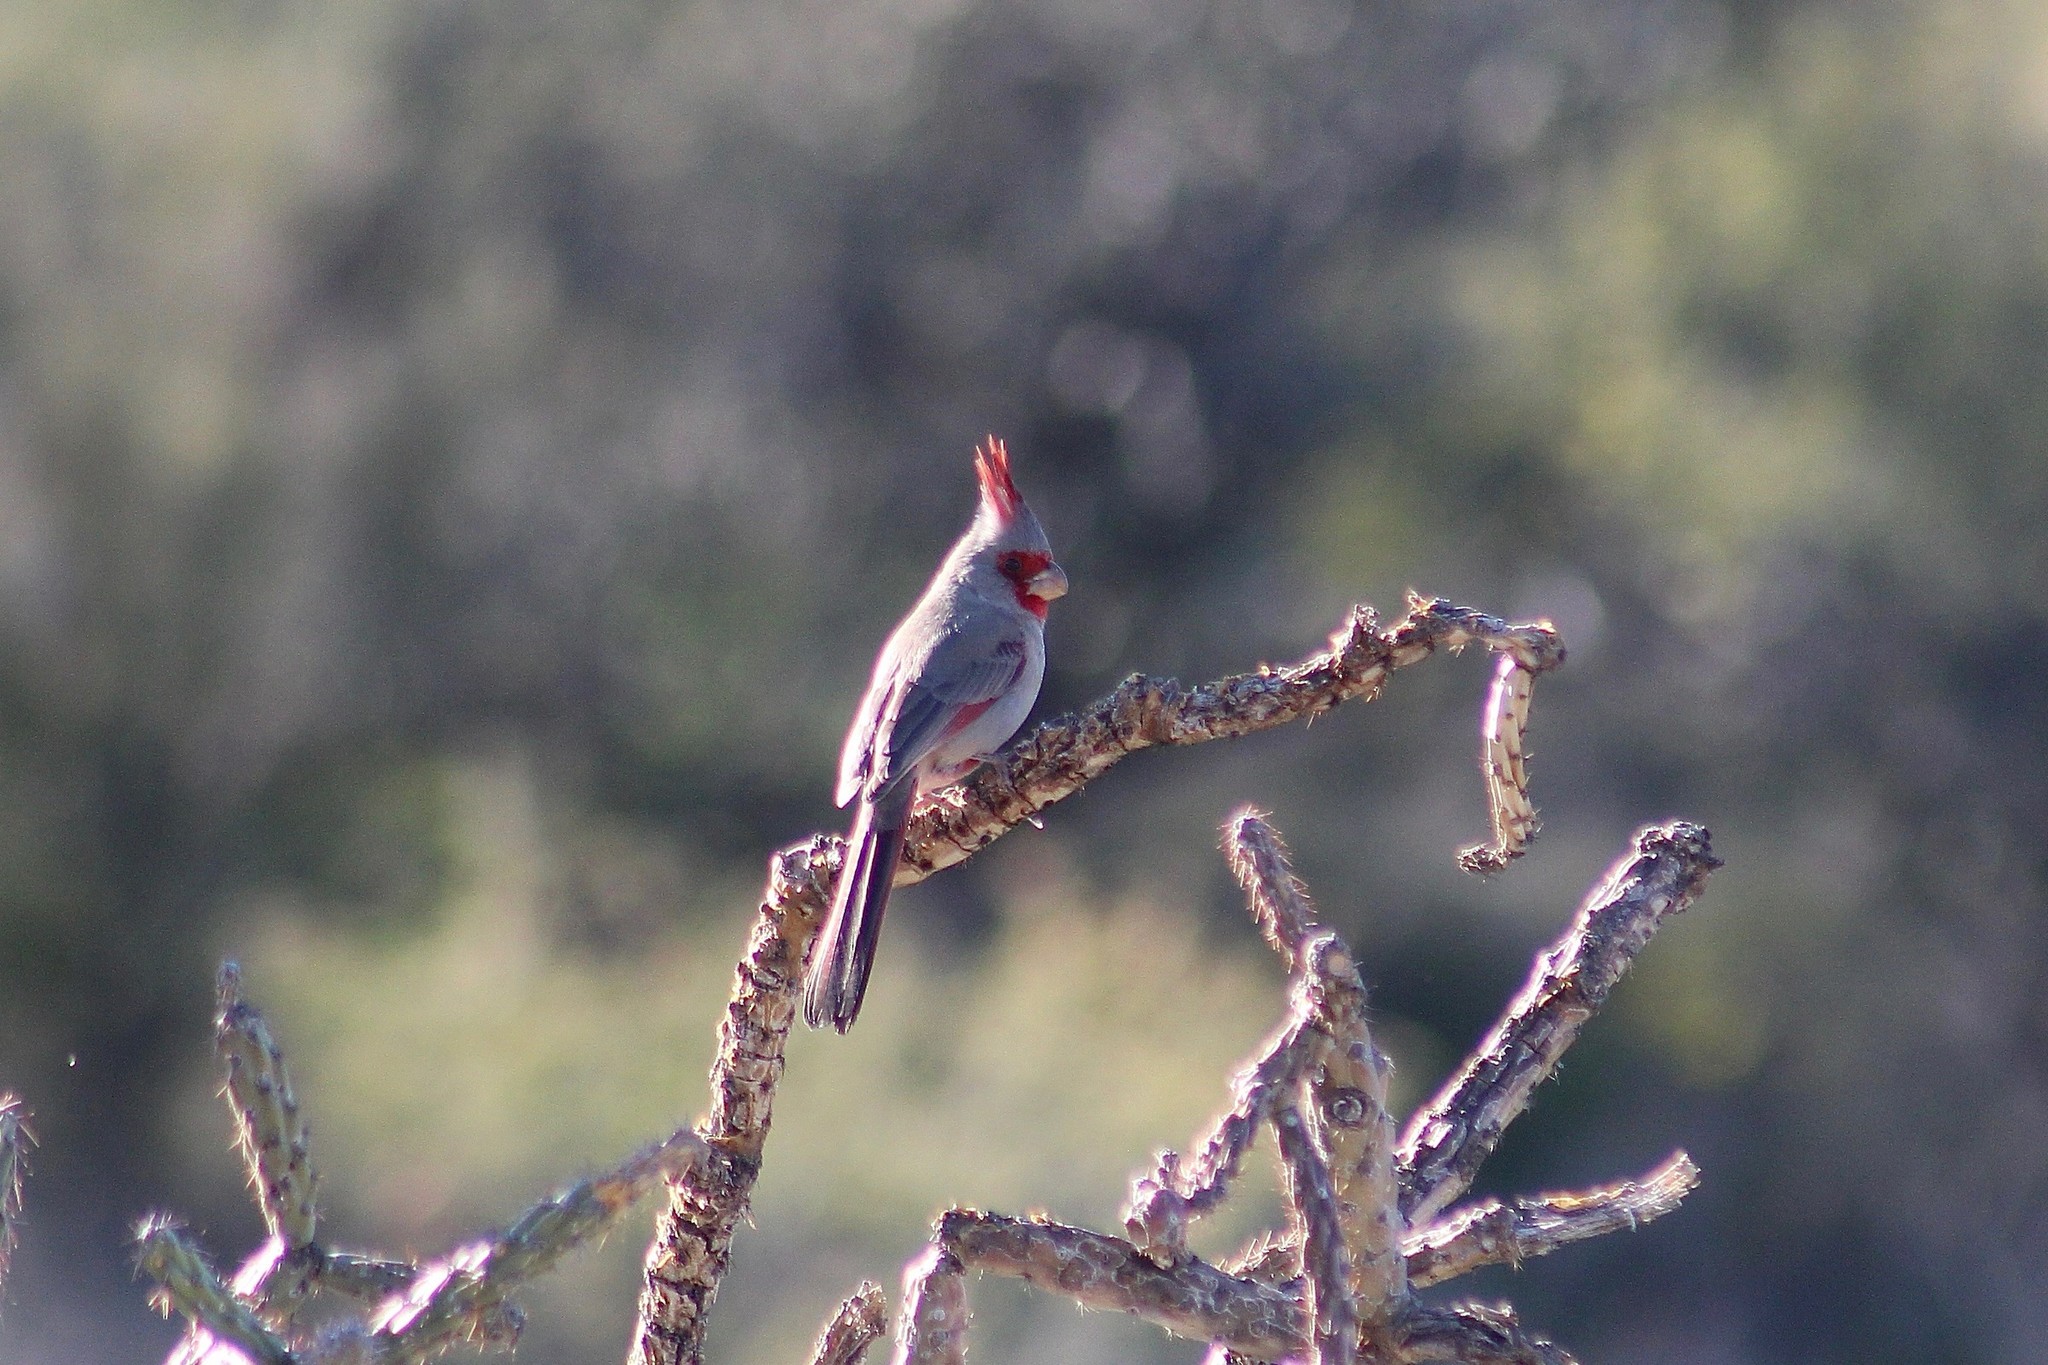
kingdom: Animalia
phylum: Chordata
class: Aves
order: Passeriformes
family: Cardinalidae
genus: Cardinalis
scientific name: Cardinalis sinuatus
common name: Pyrrhuloxia
